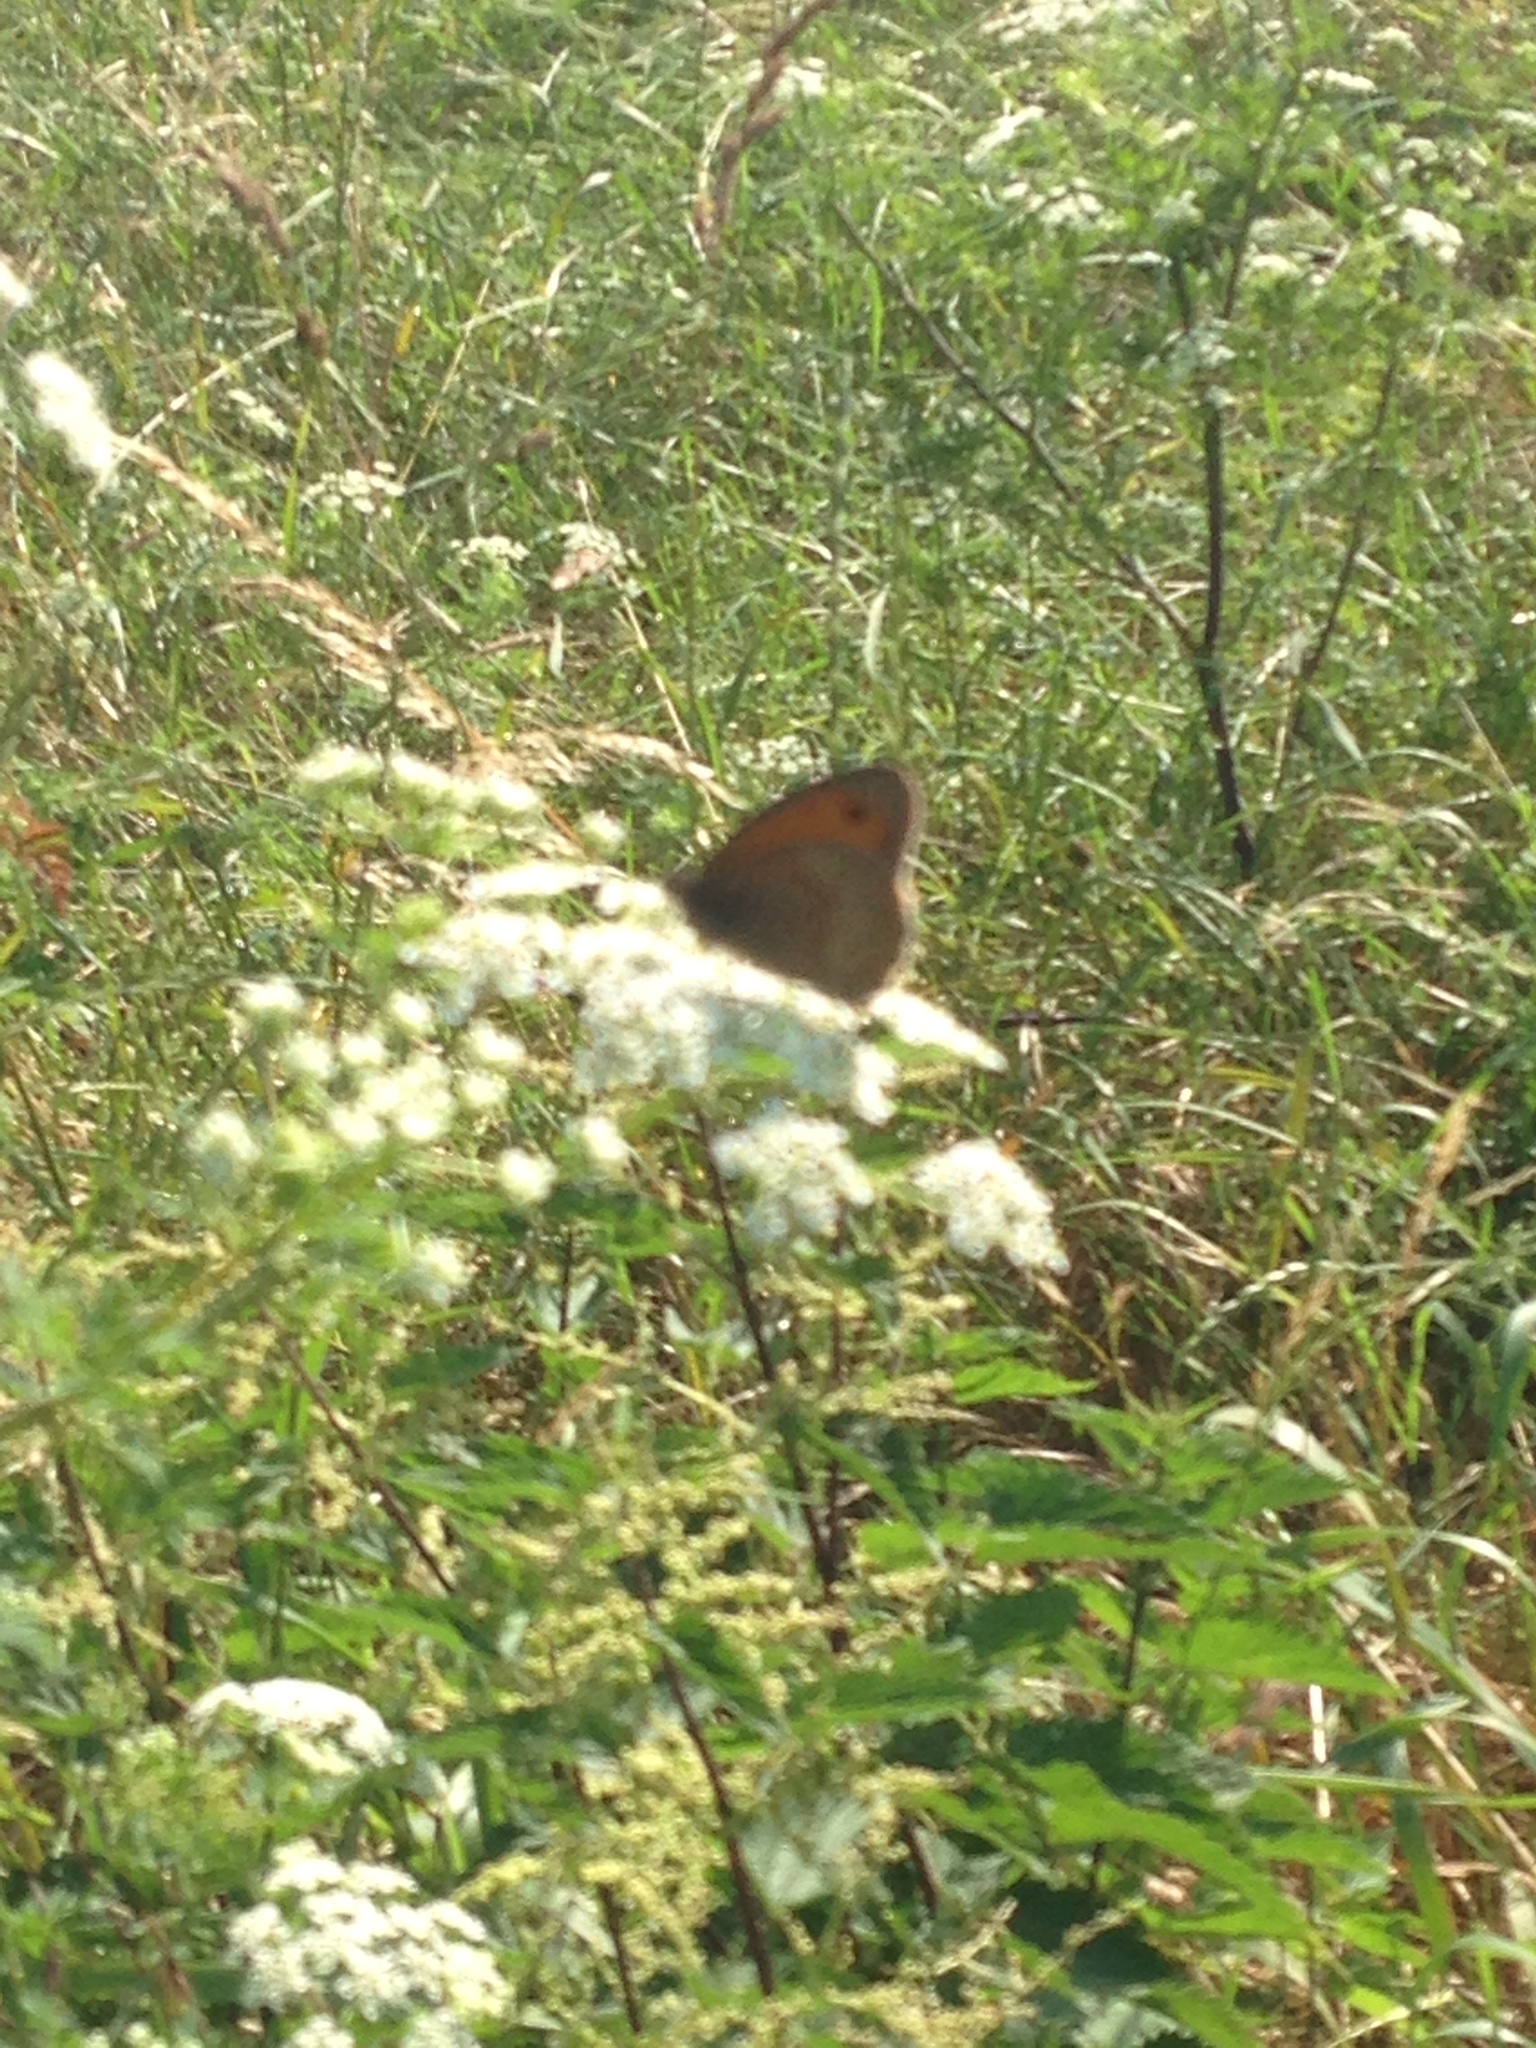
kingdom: Animalia
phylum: Arthropoda
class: Insecta
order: Lepidoptera
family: Nymphalidae
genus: Maniola
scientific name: Maniola jurtina
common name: Meadow brown
